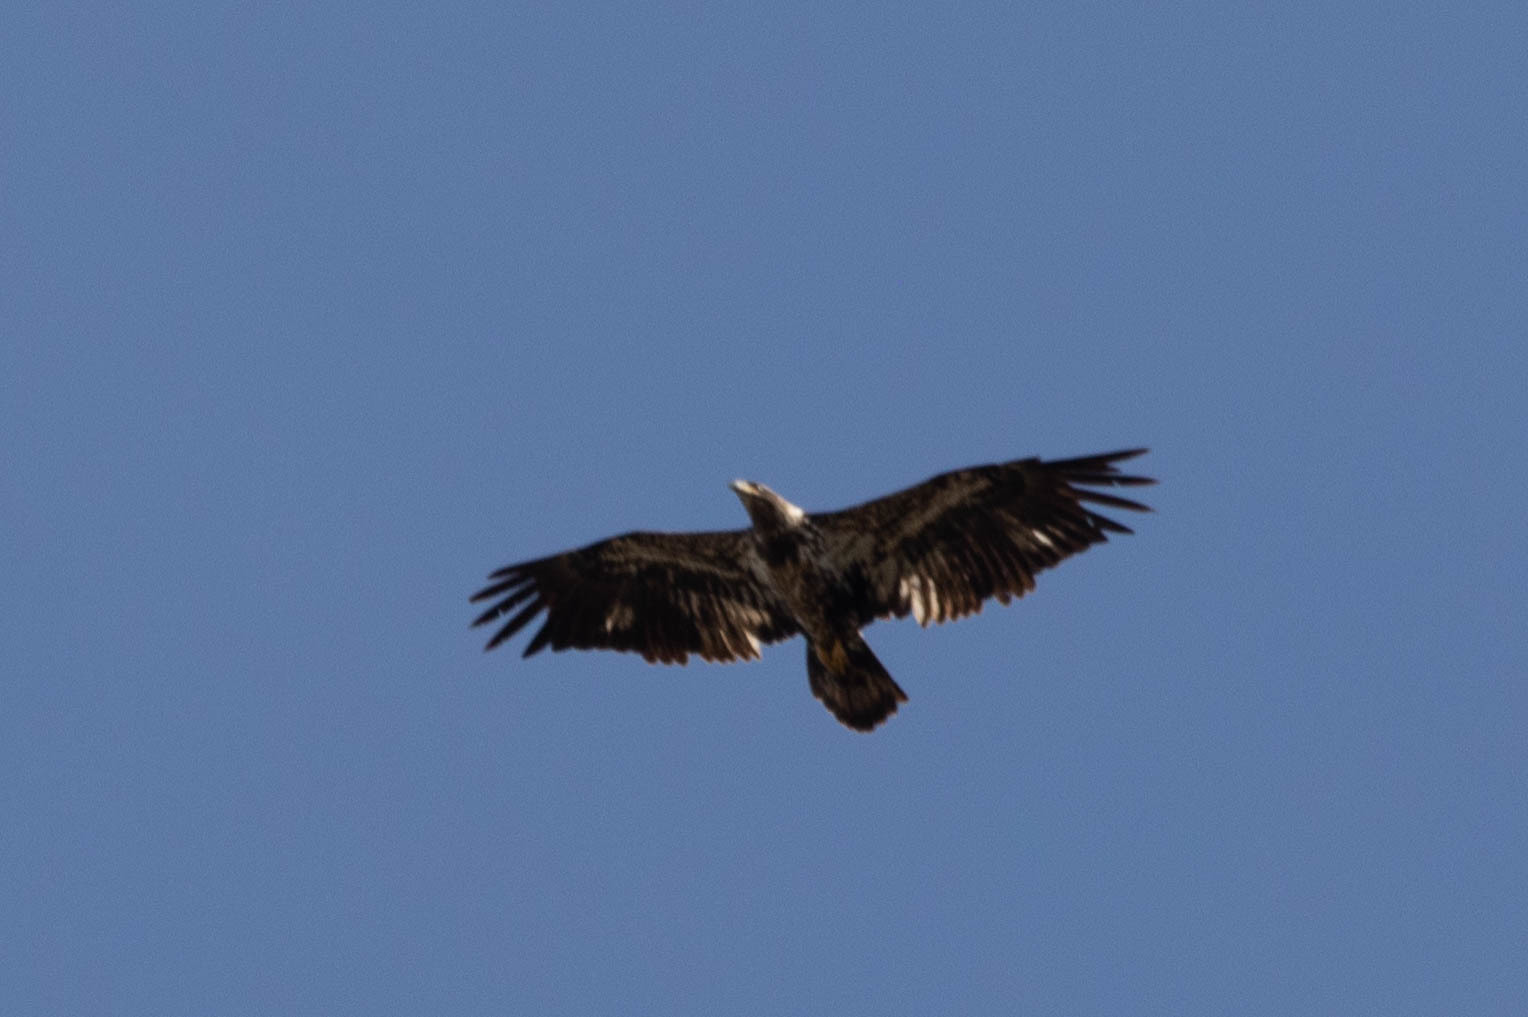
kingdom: Animalia
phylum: Chordata
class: Aves
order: Accipitriformes
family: Accipitridae
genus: Haliaeetus
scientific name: Haliaeetus leucocephalus
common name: Bald eagle
